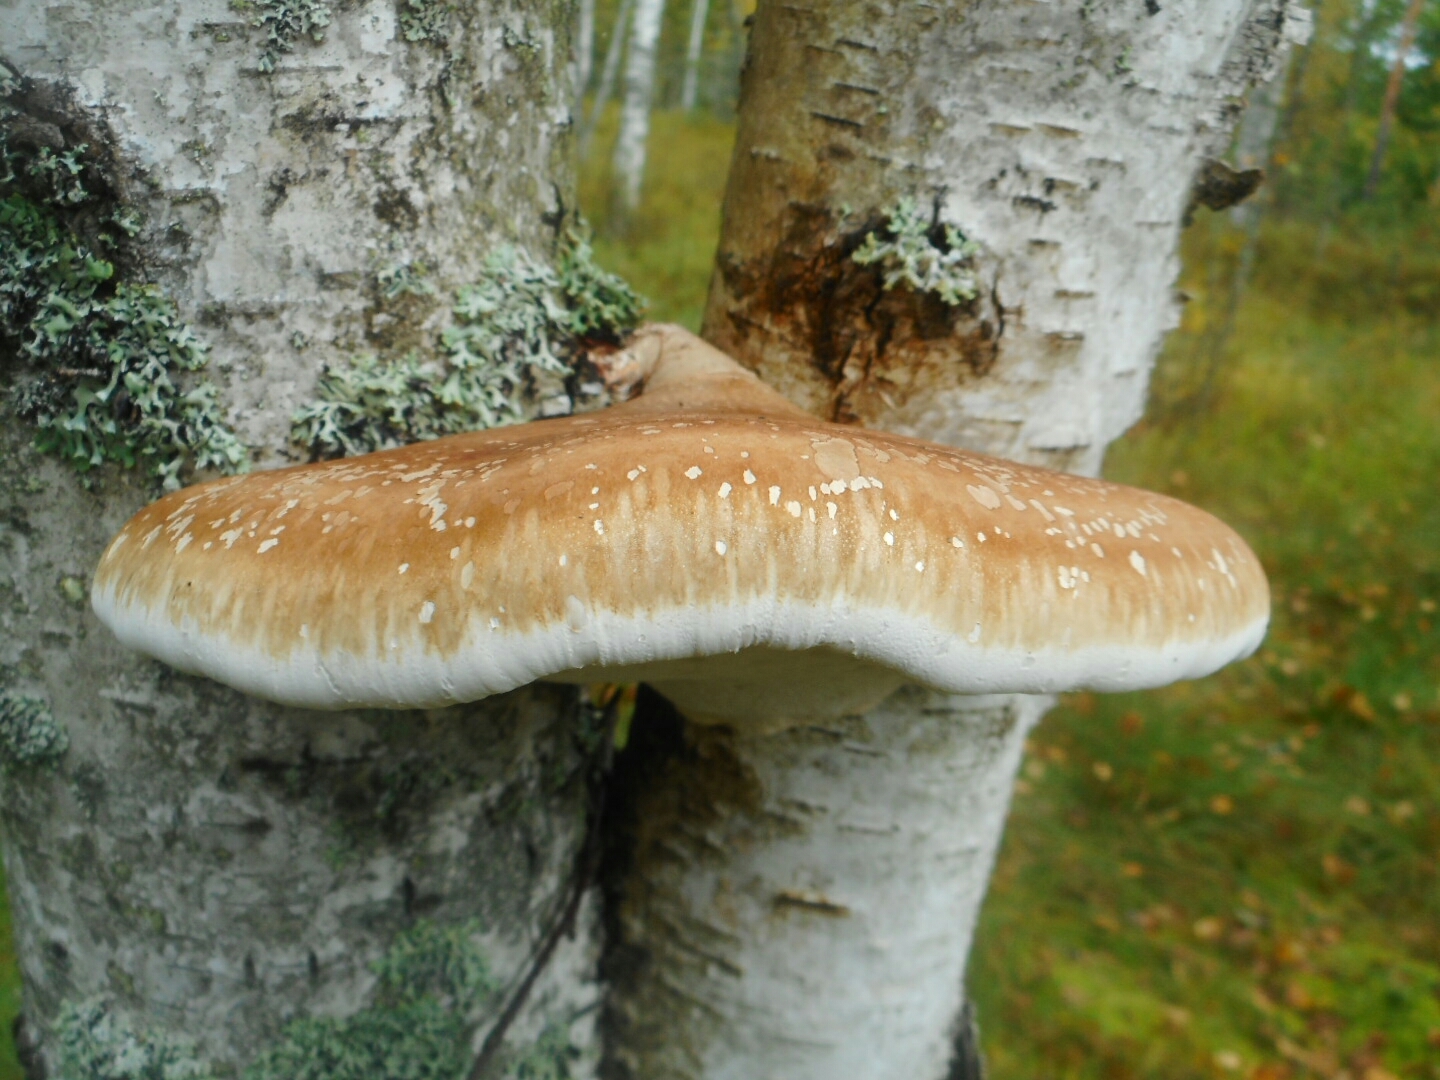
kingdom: Fungi
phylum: Basidiomycota
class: Agaricomycetes
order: Polyporales
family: Fomitopsidaceae
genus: Fomitopsis
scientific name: Fomitopsis betulina
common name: Birch polypore
